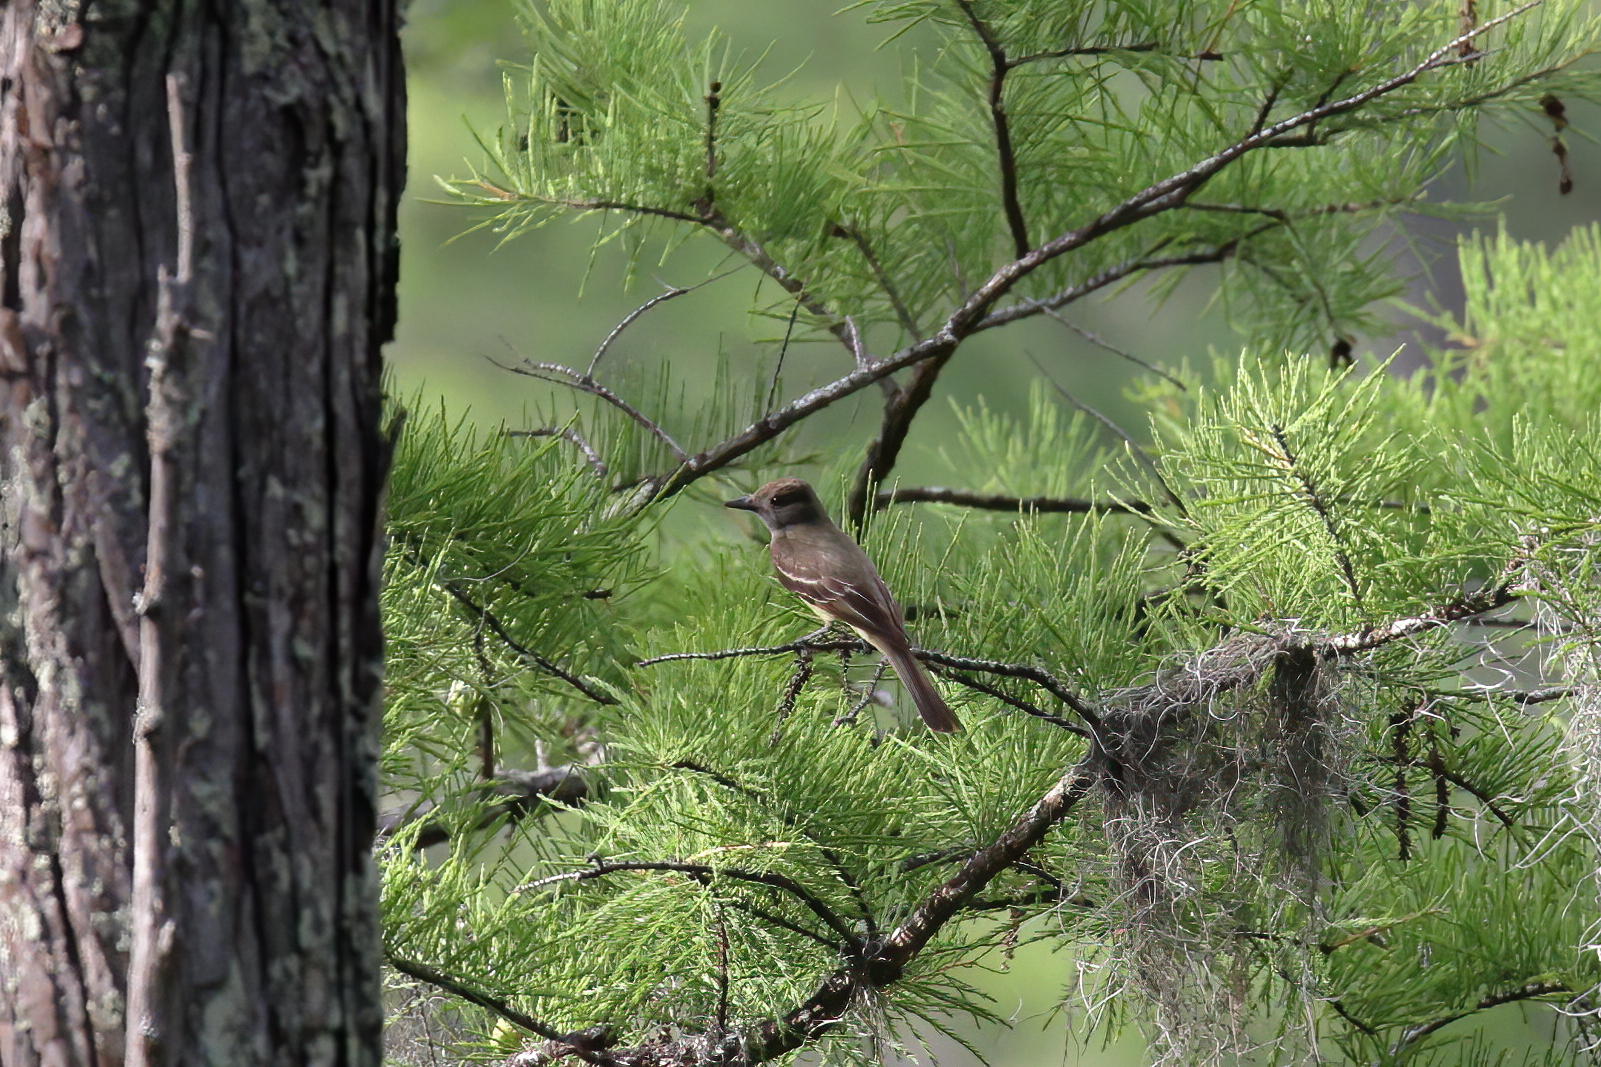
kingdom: Animalia
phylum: Chordata
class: Aves
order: Passeriformes
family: Tyrannidae
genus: Myiarchus
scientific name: Myiarchus crinitus
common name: Great crested flycatcher
